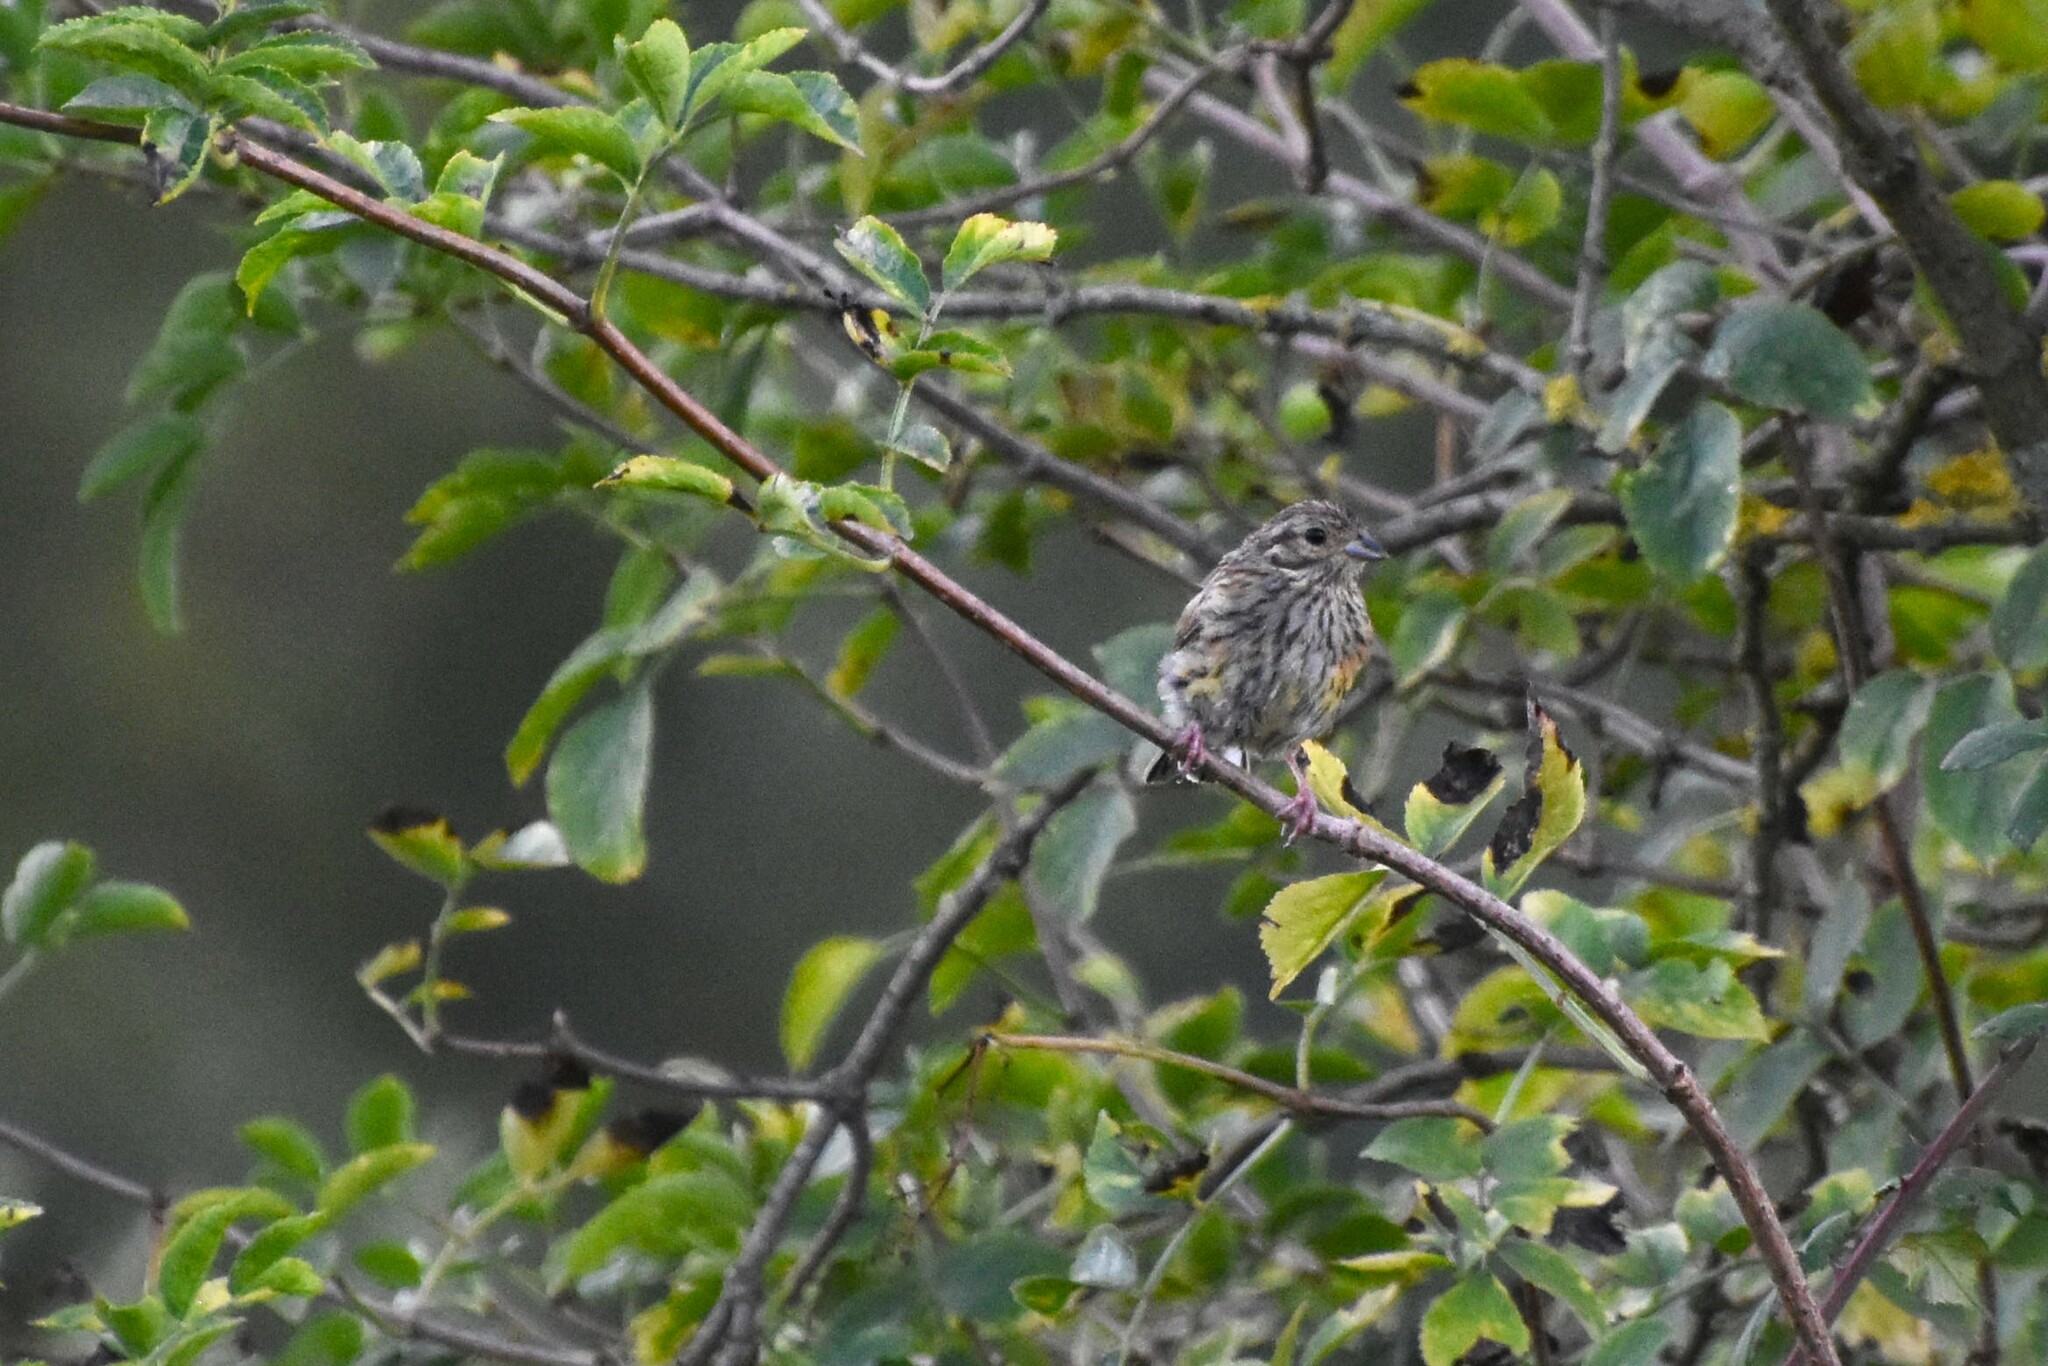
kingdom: Animalia
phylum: Chordata
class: Aves
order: Passeriformes
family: Emberizidae
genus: Emberiza
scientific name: Emberiza cirlus
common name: Cirl bunting
